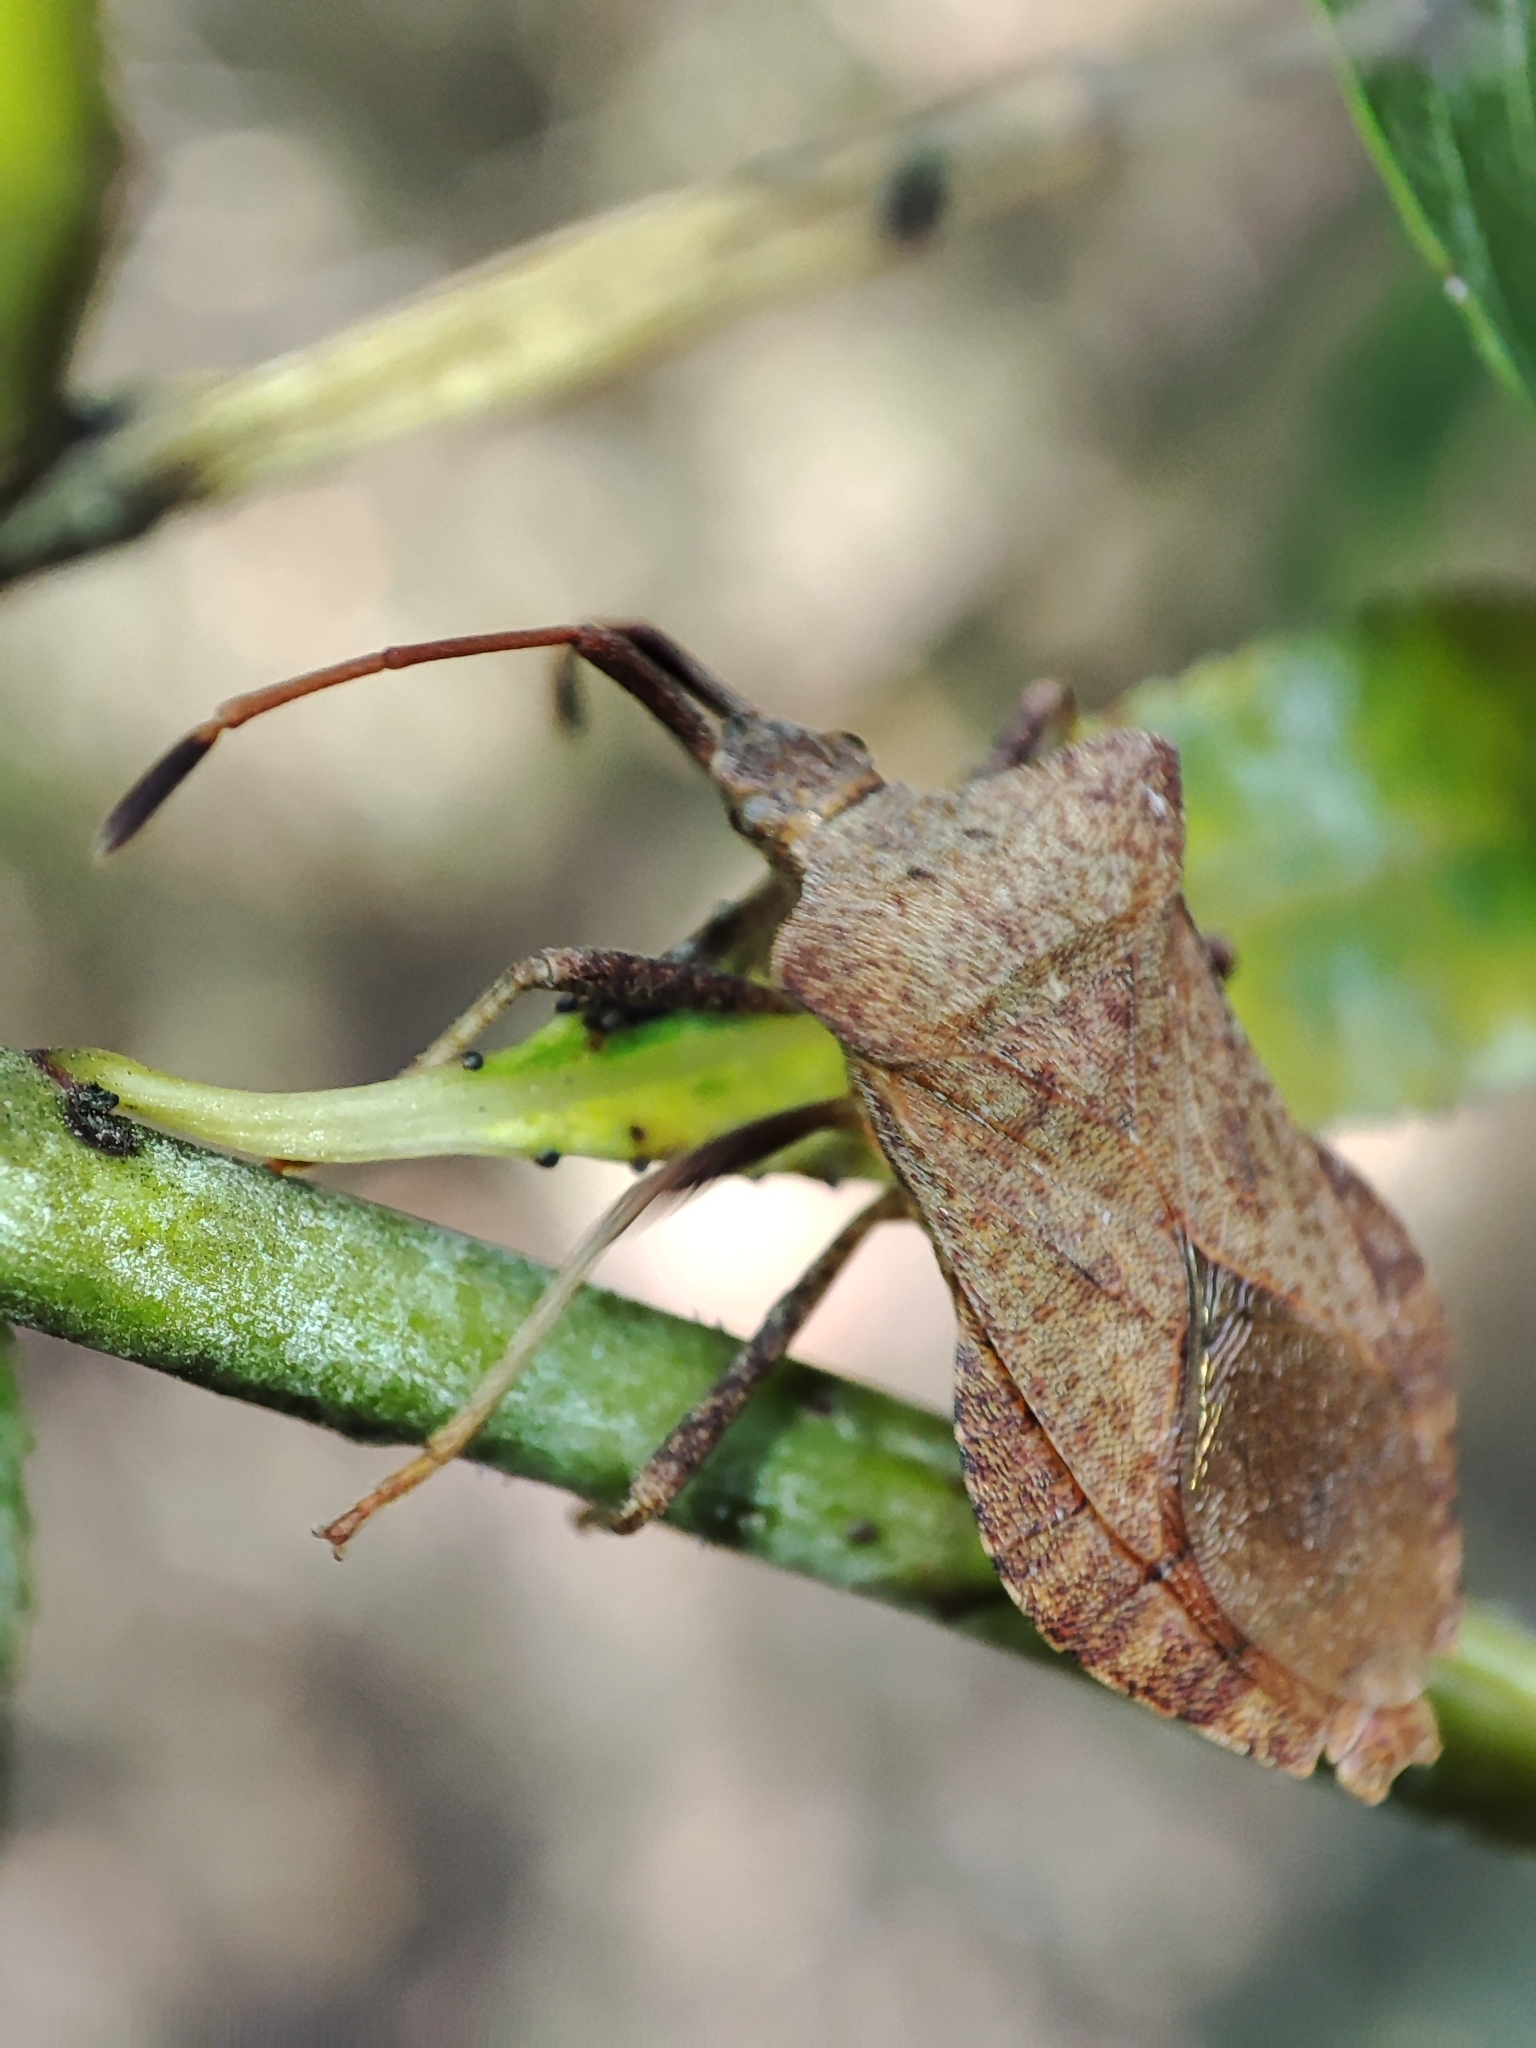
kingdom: Animalia
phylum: Arthropoda
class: Insecta
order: Hemiptera
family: Coreidae
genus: Coreus
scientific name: Coreus marginatus
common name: Dock bug
